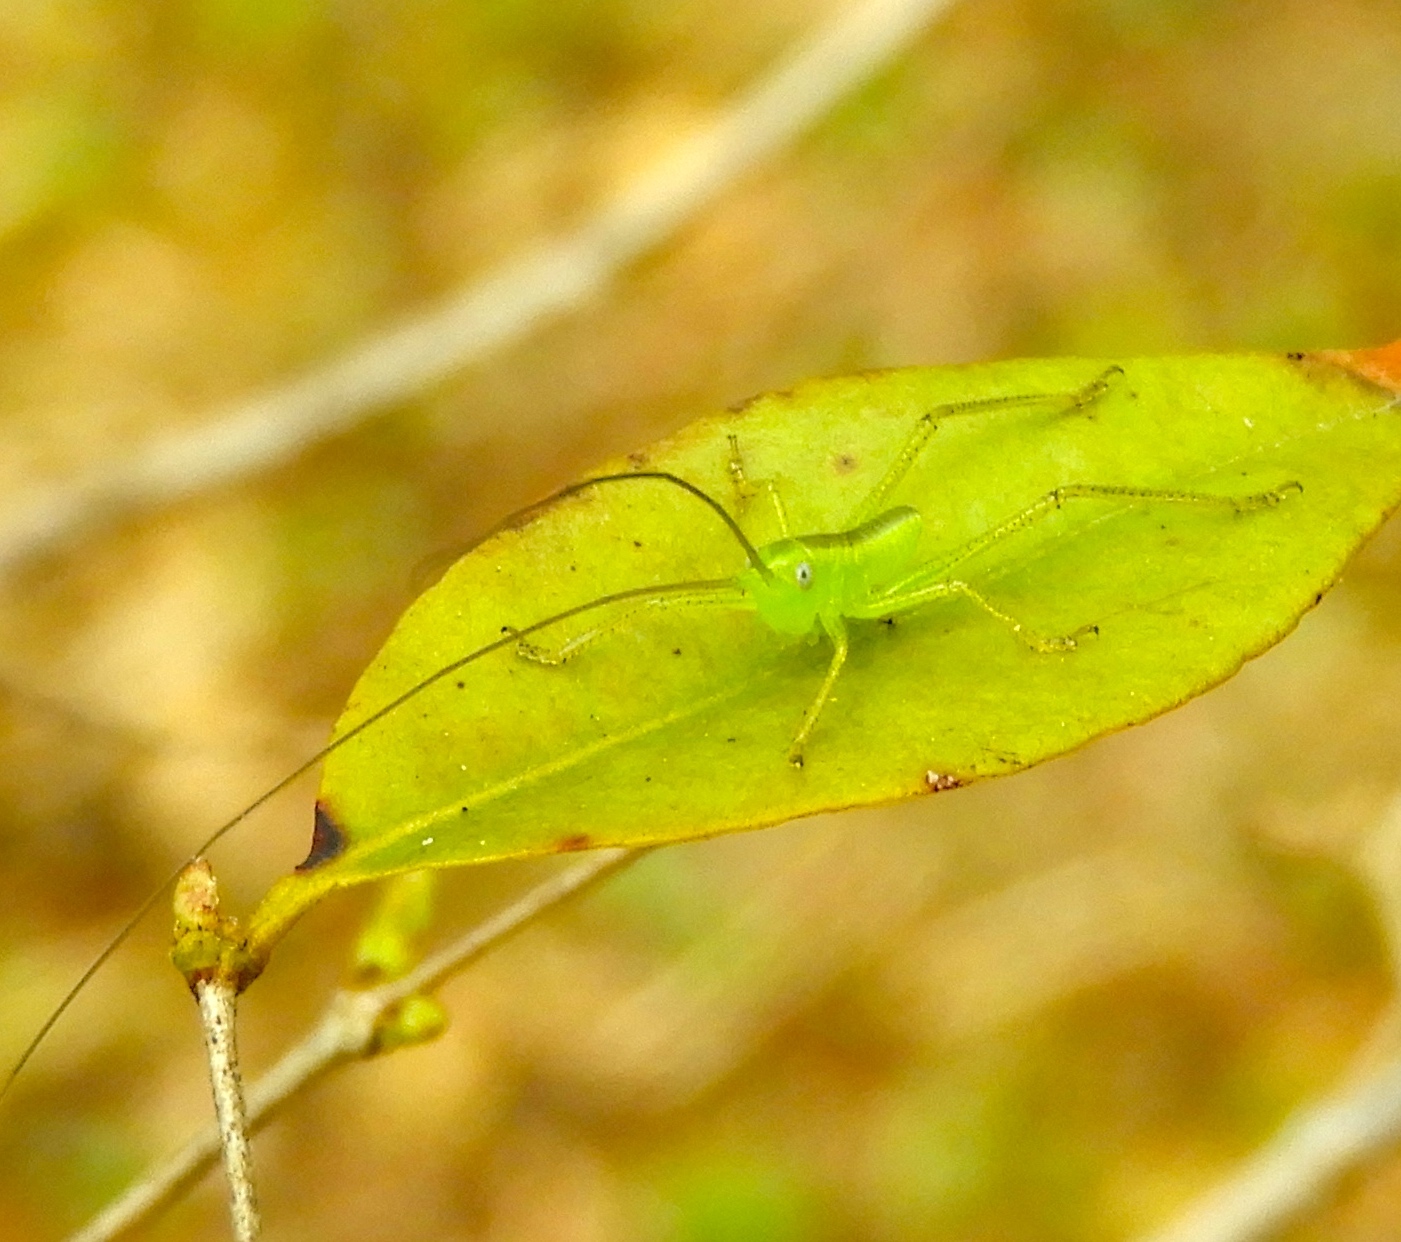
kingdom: Animalia
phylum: Arthropoda
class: Insecta
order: Orthoptera
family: Tettigoniidae
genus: Neobarrettia
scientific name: Neobarrettia sinaloae
